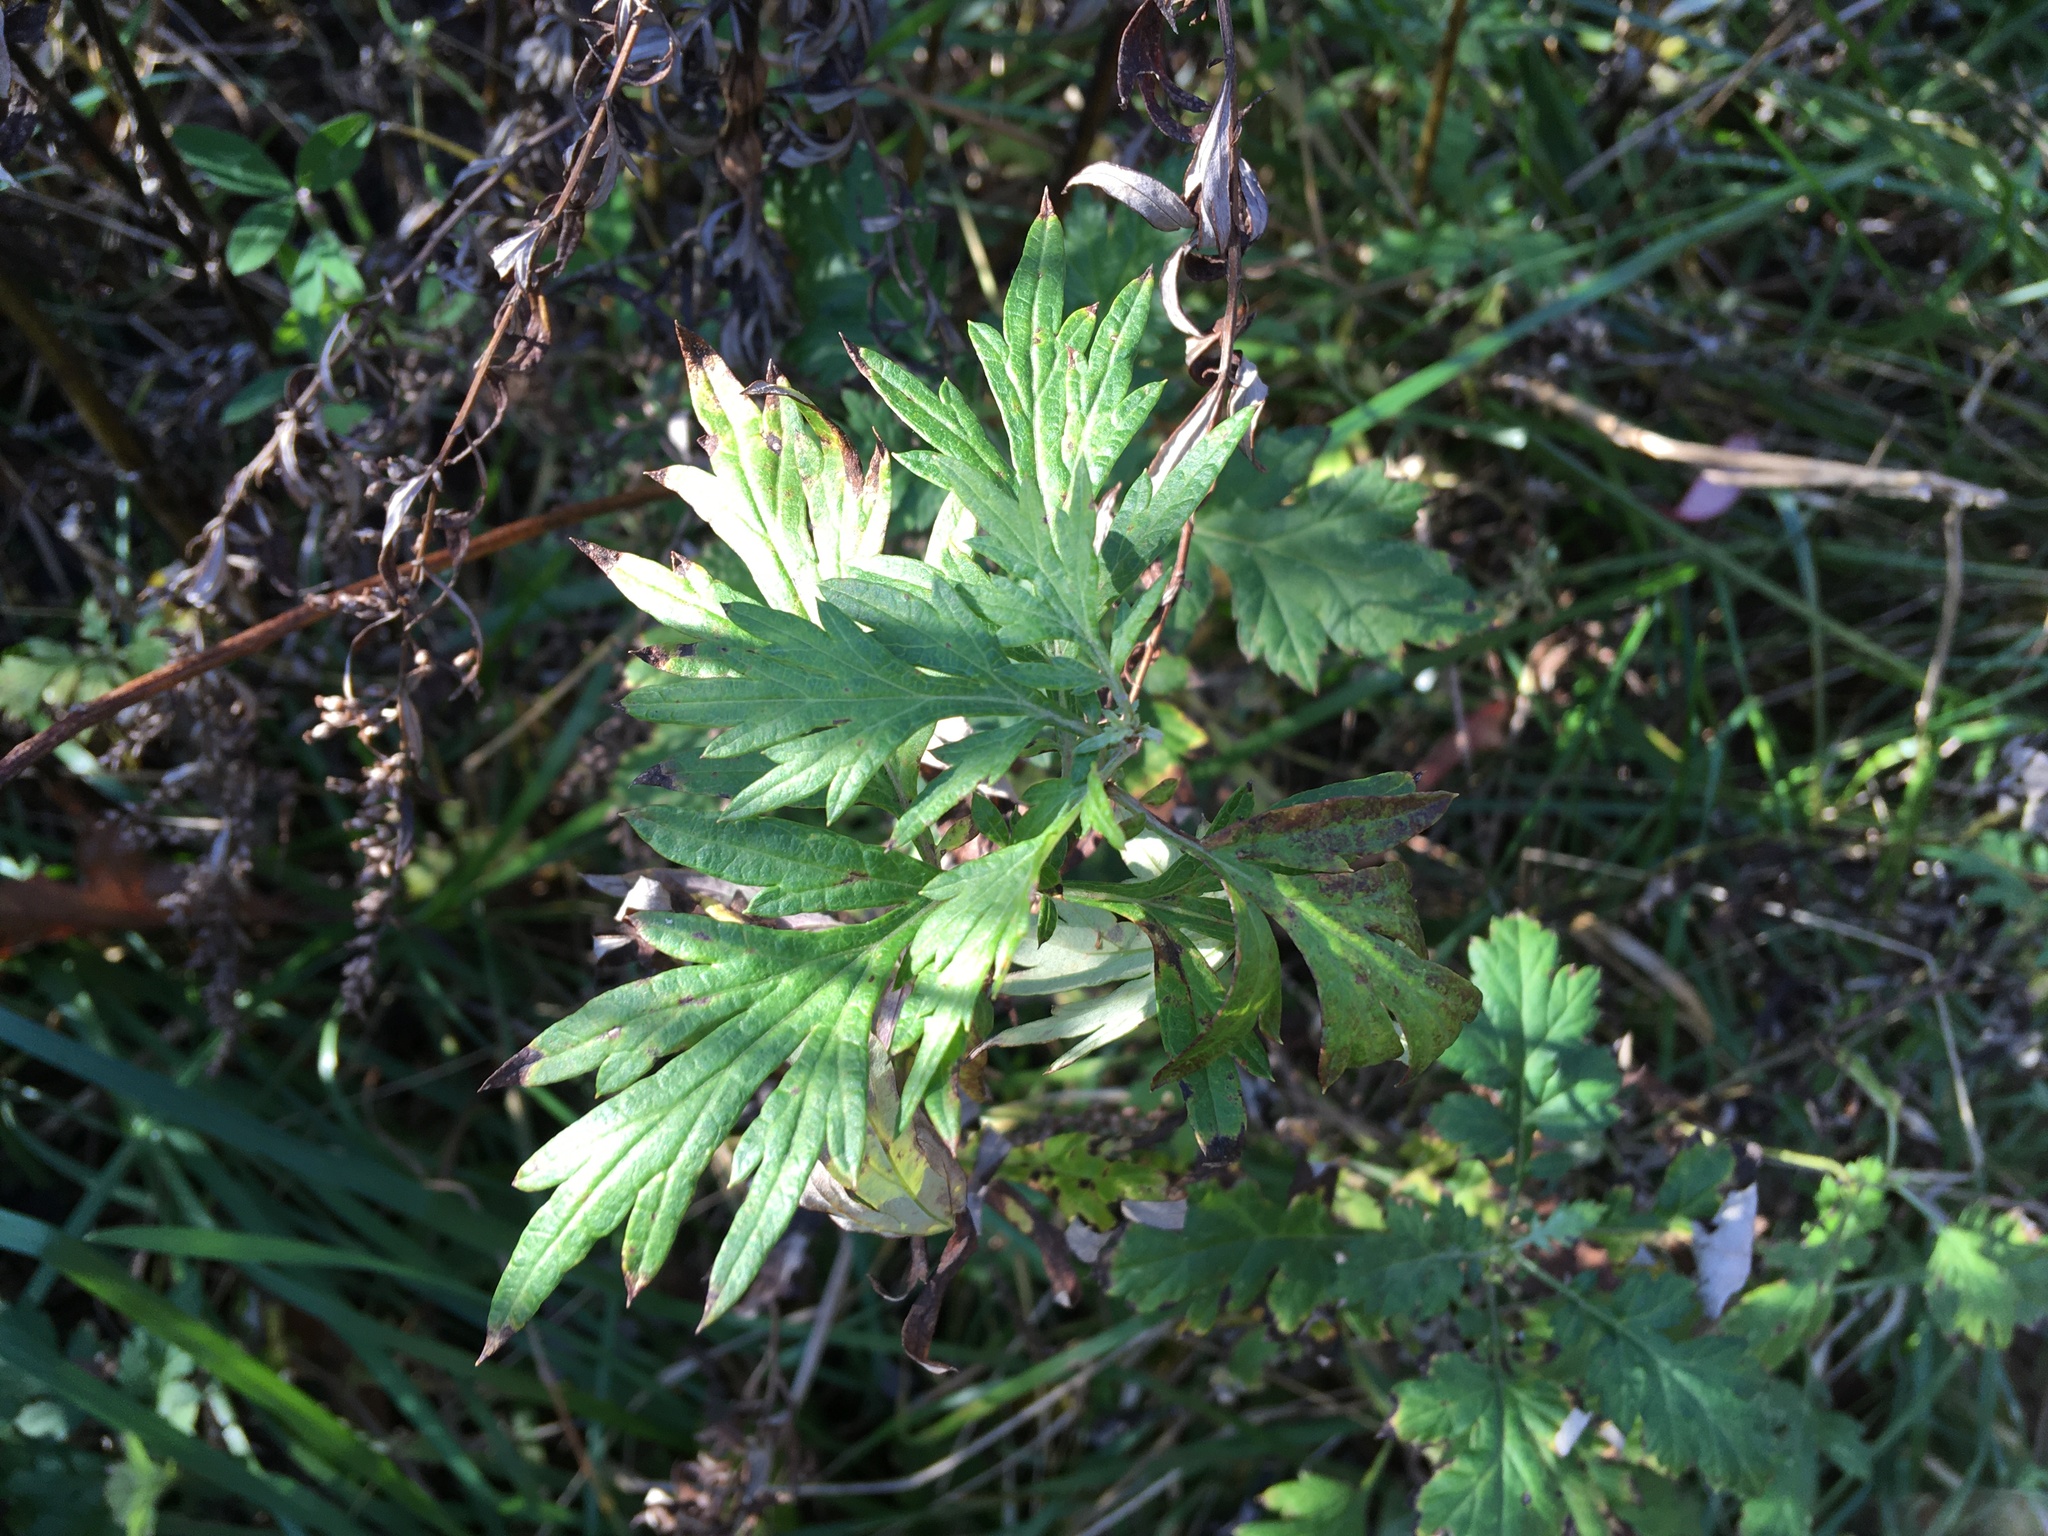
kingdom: Plantae
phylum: Tracheophyta
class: Magnoliopsida
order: Asterales
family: Asteraceae
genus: Artemisia
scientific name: Artemisia vulgaris
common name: Mugwort
